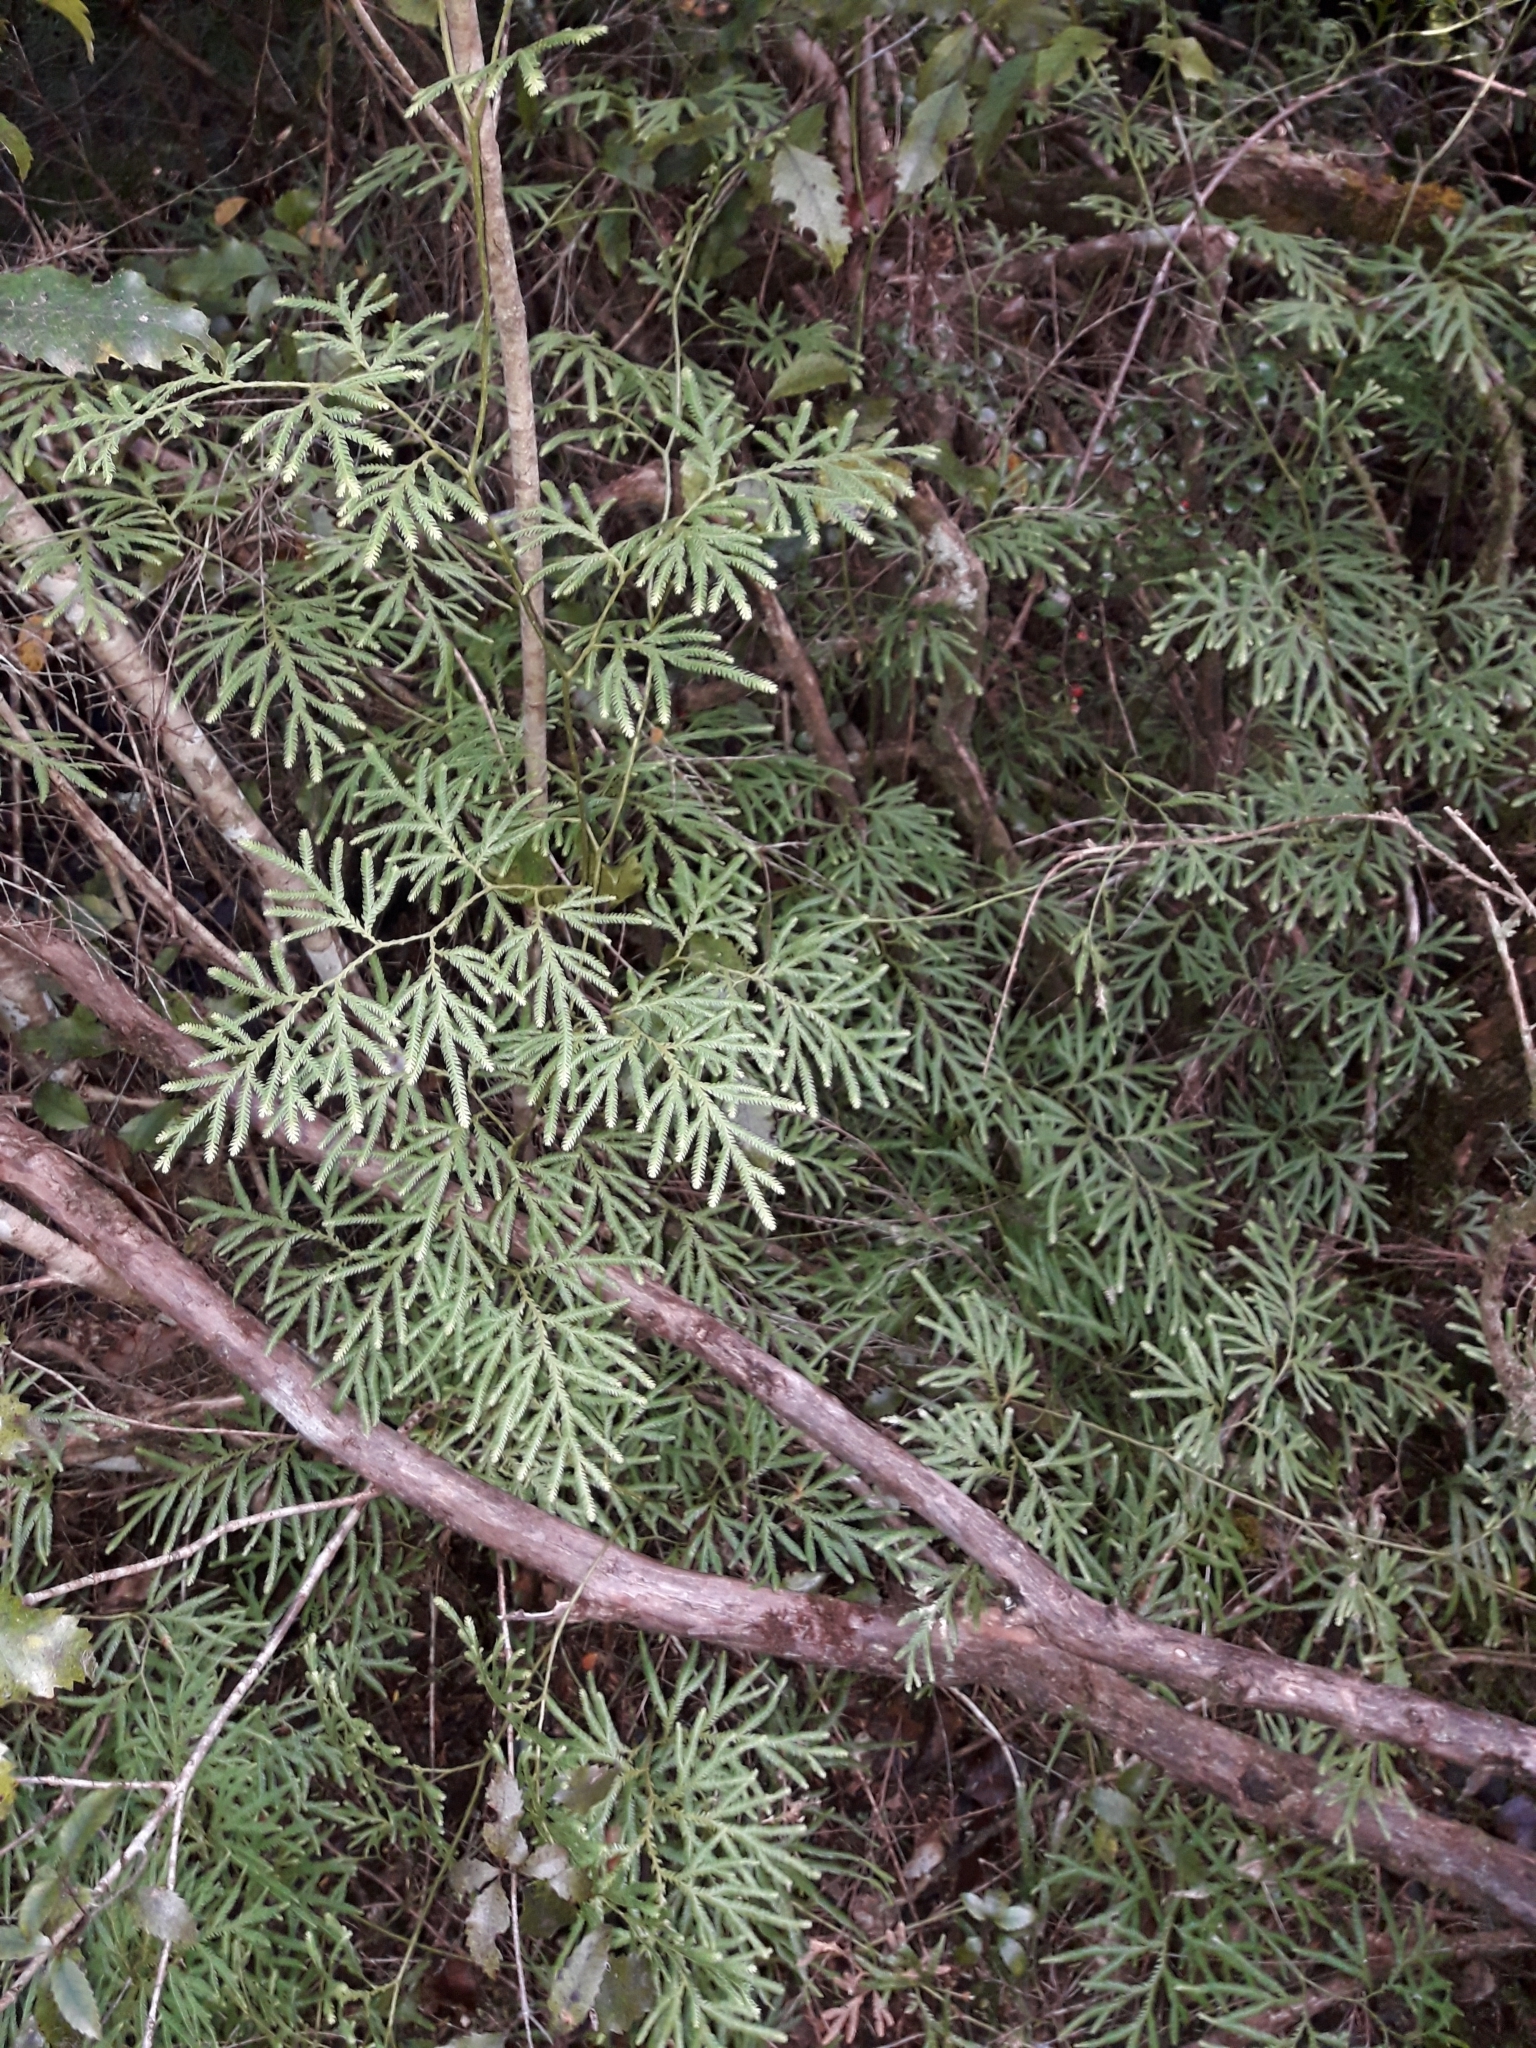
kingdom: Plantae
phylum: Tracheophyta
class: Lycopodiopsida
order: Lycopodiales
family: Lycopodiaceae
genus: Lycopodium
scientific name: Lycopodium volubile
